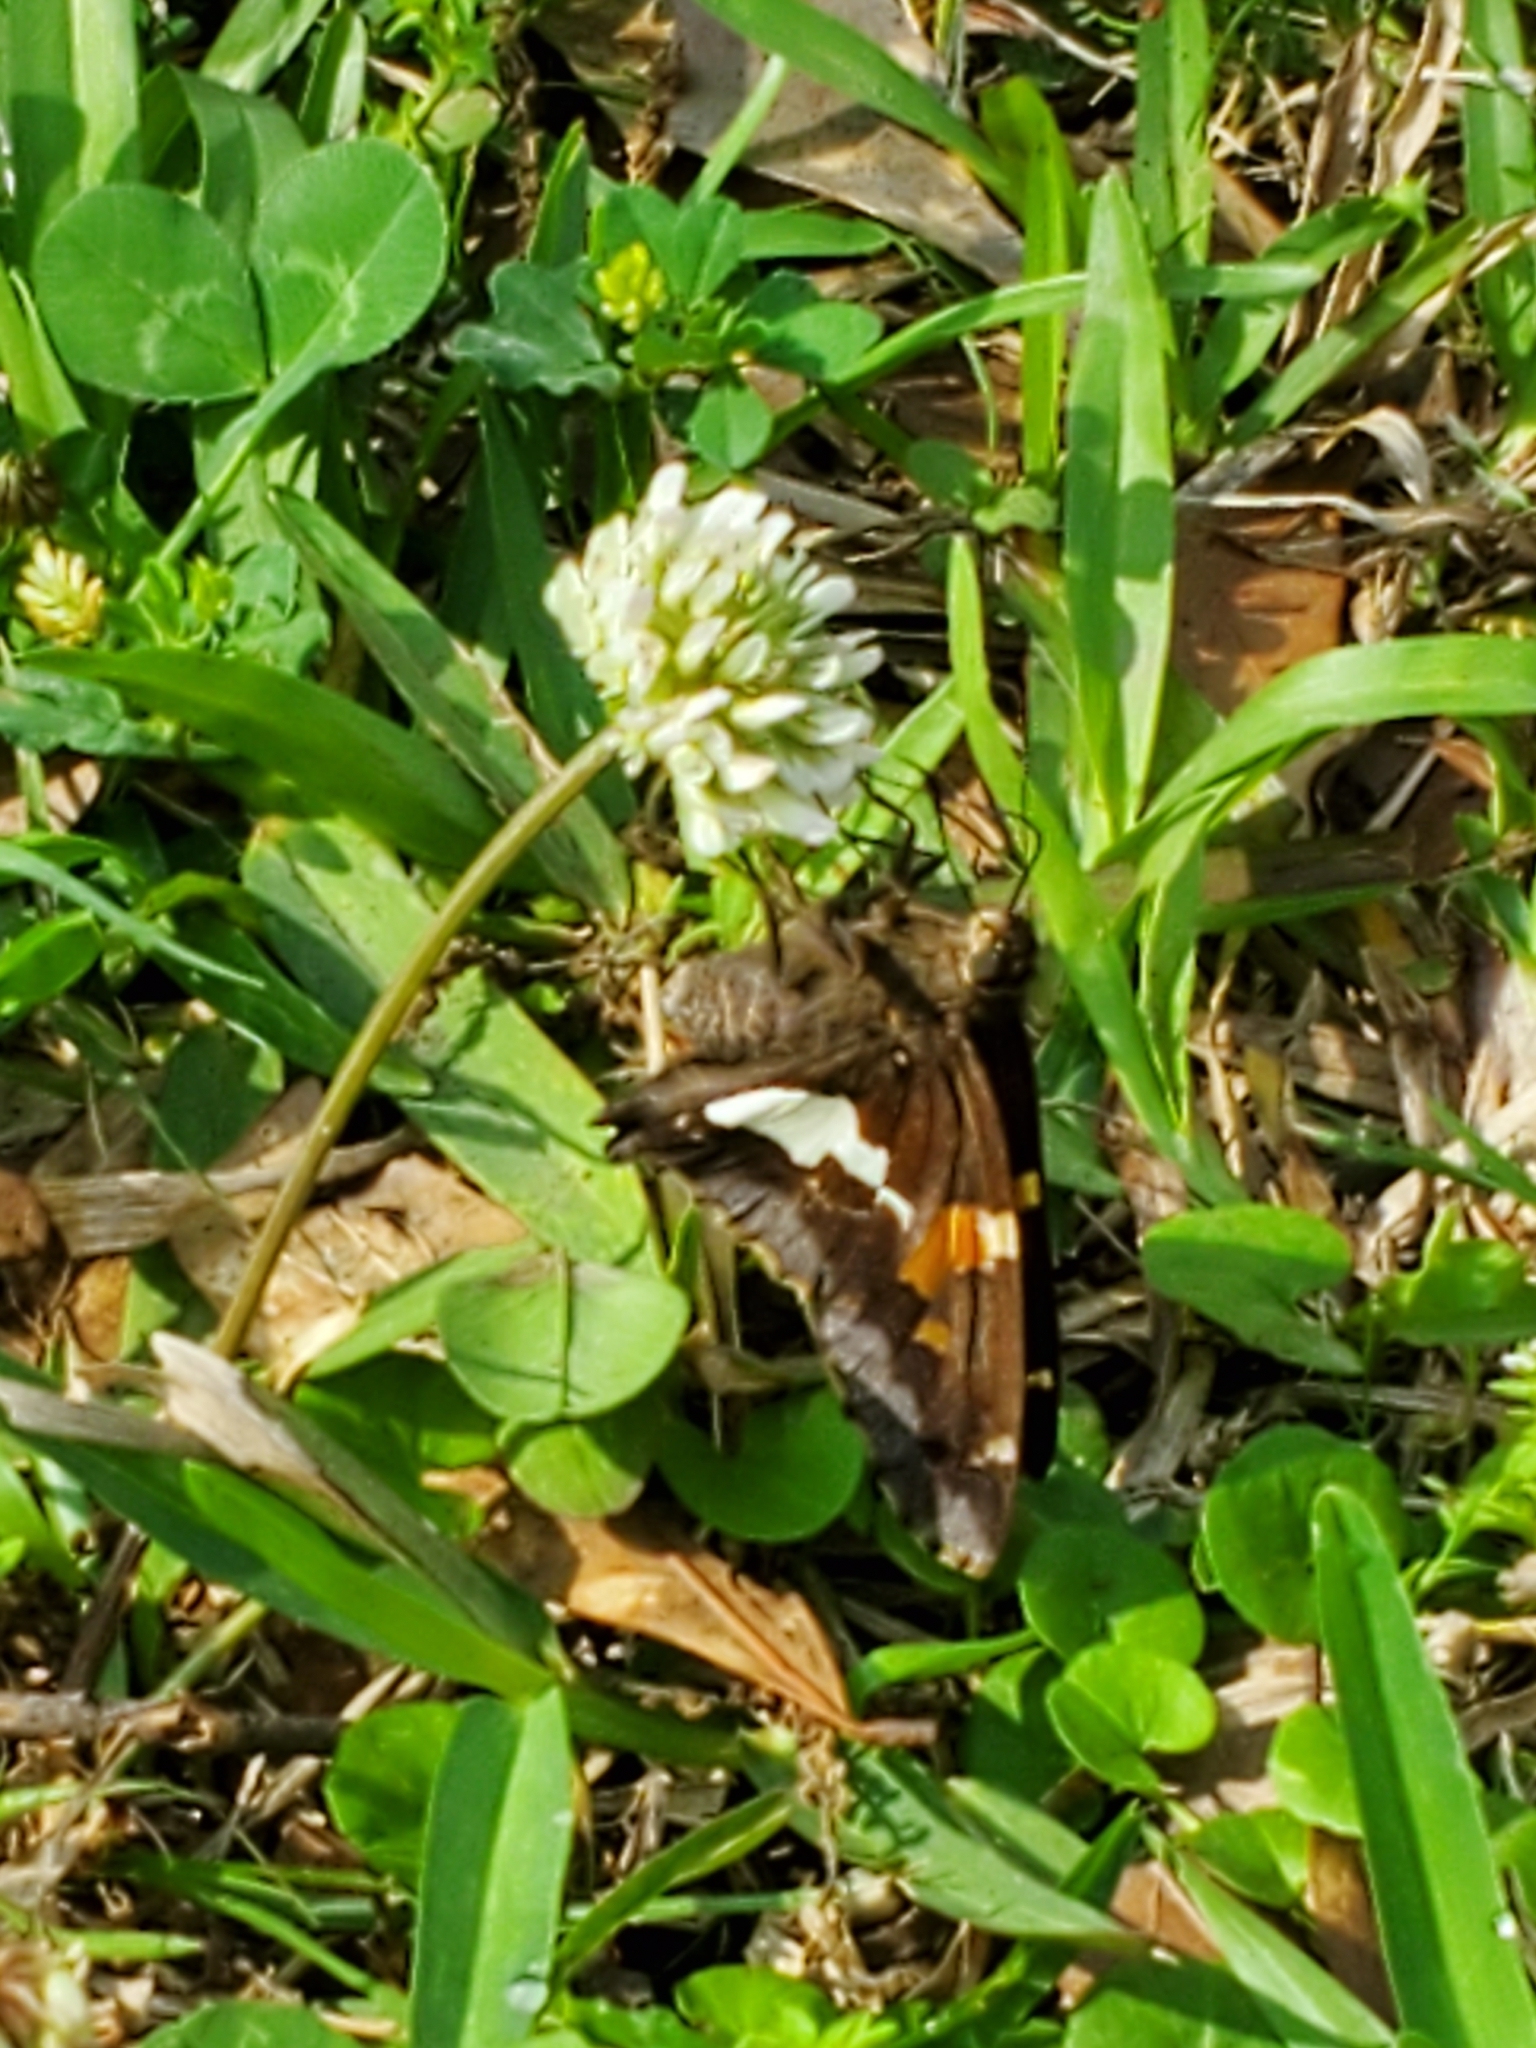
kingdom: Animalia
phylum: Arthropoda
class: Insecta
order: Lepidoptera
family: Hesperiidae
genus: Epargyreus
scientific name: Epargyreus clarus
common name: Silver-spotted skipper
